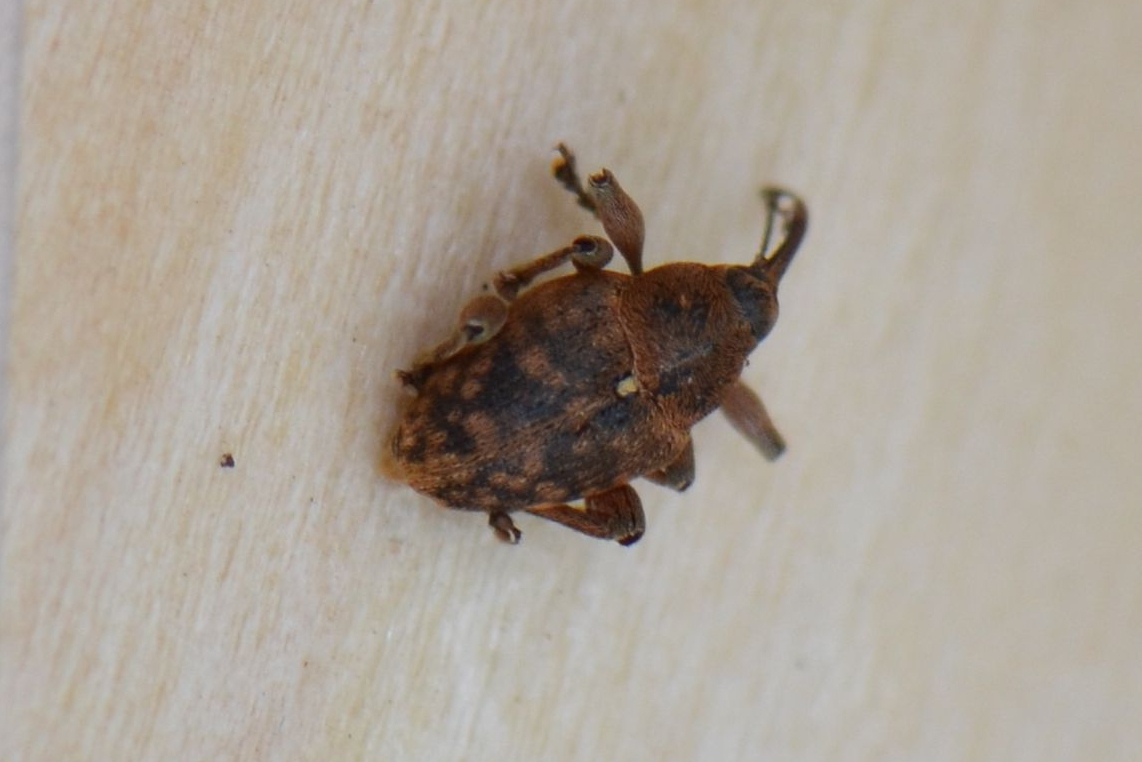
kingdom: Animalia
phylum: Arthropoda
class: Insecta
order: Coleoptera
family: Curculionidae
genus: Curculio
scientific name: Curculio nucum
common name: Nut weevil
